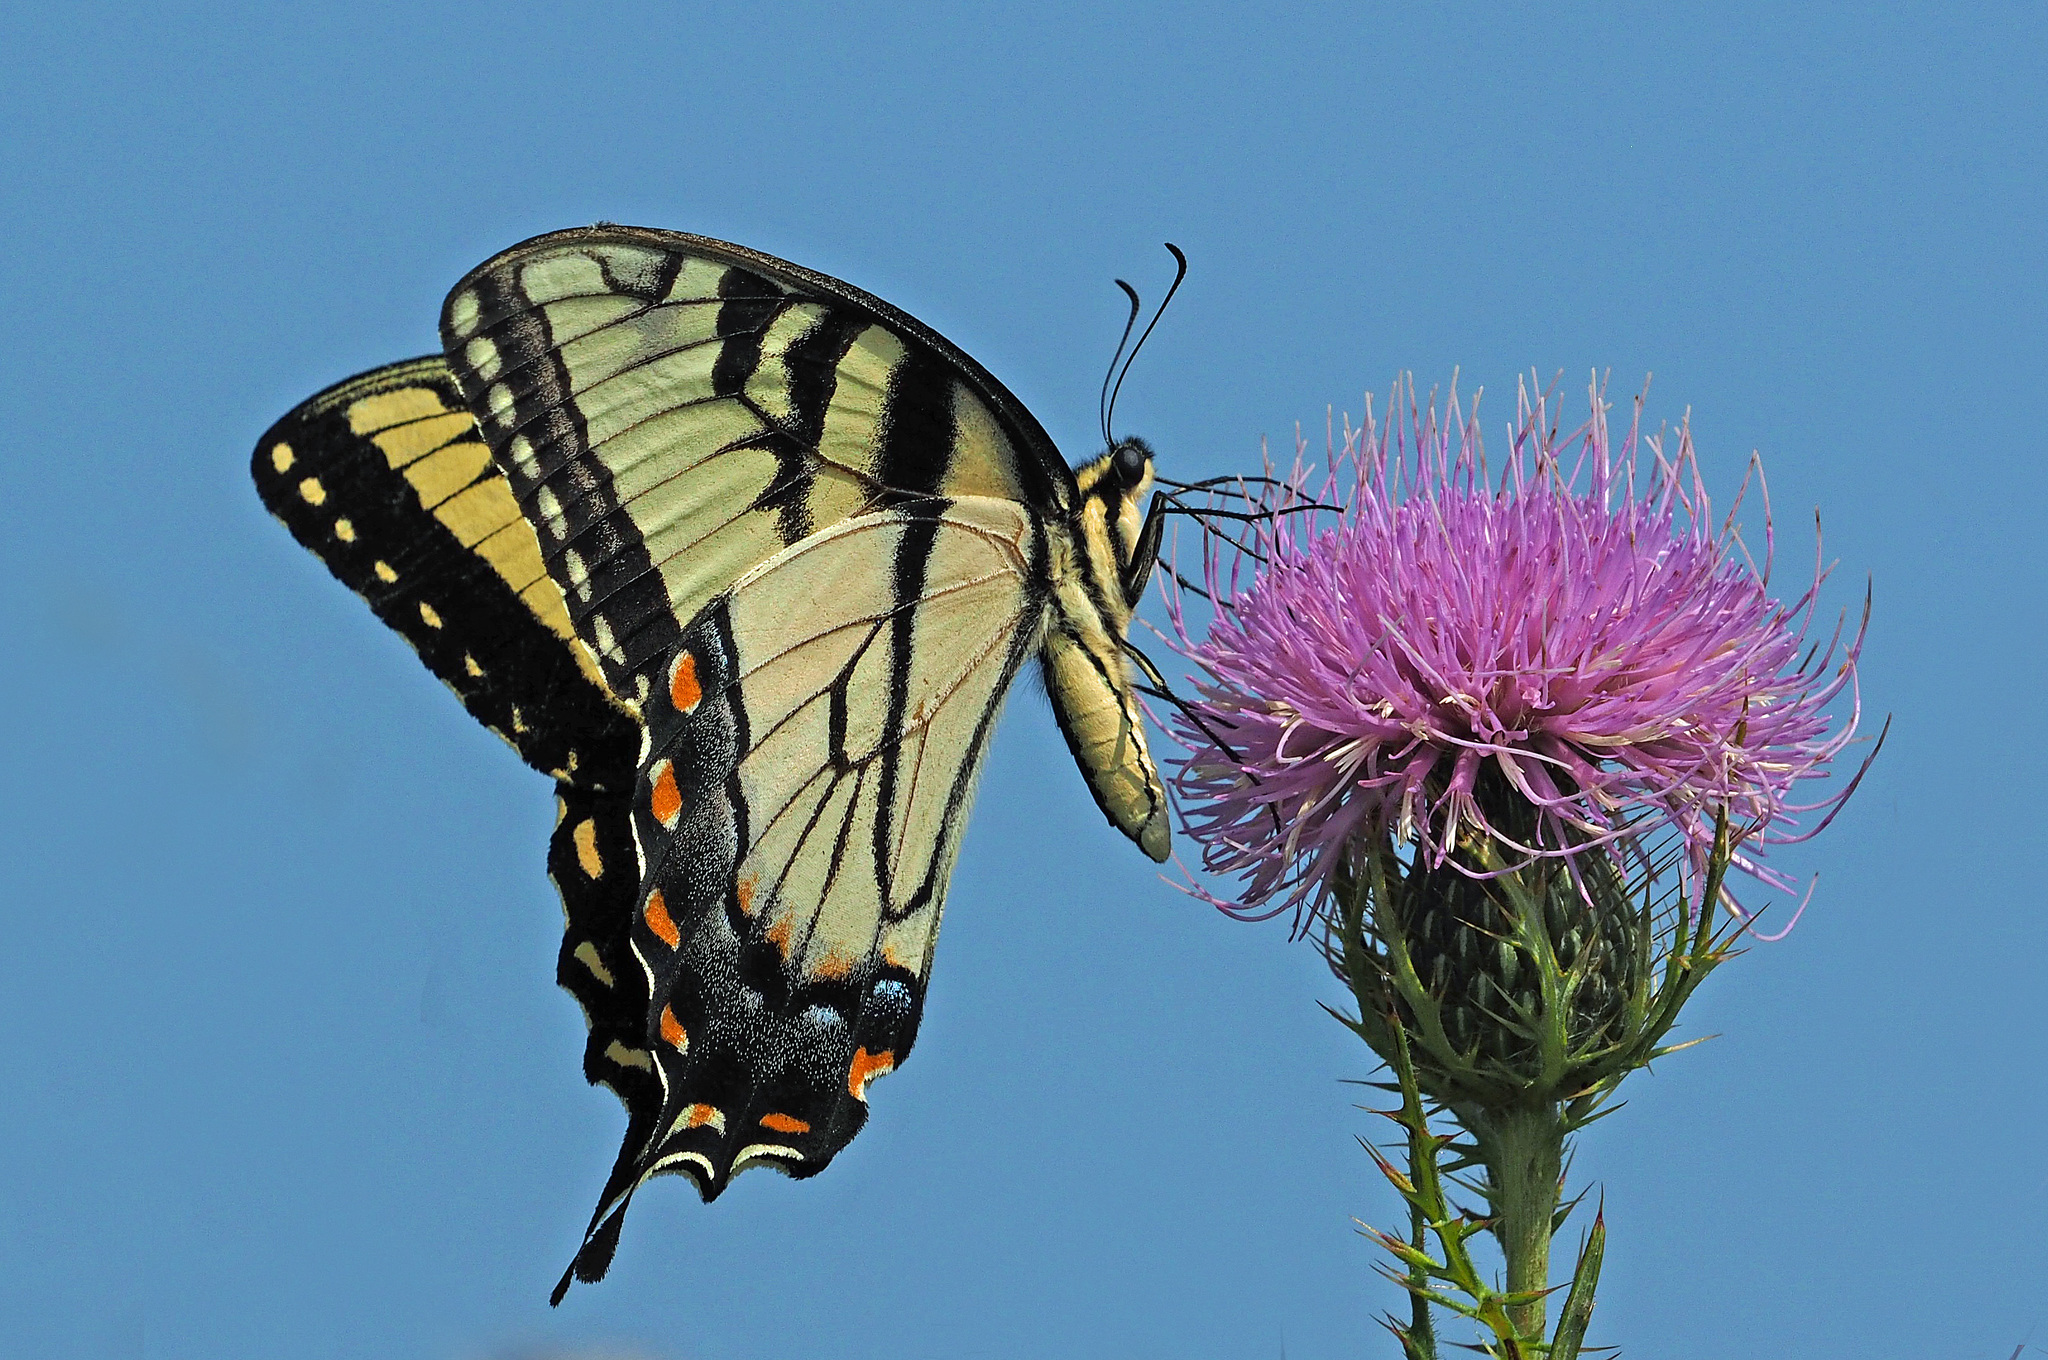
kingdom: Animalia
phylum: Arthropoda
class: Insecta
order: Lepidoptera
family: Papilionidae
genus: Papilio
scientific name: Papilio glaucus
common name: Tiger swallowtail
